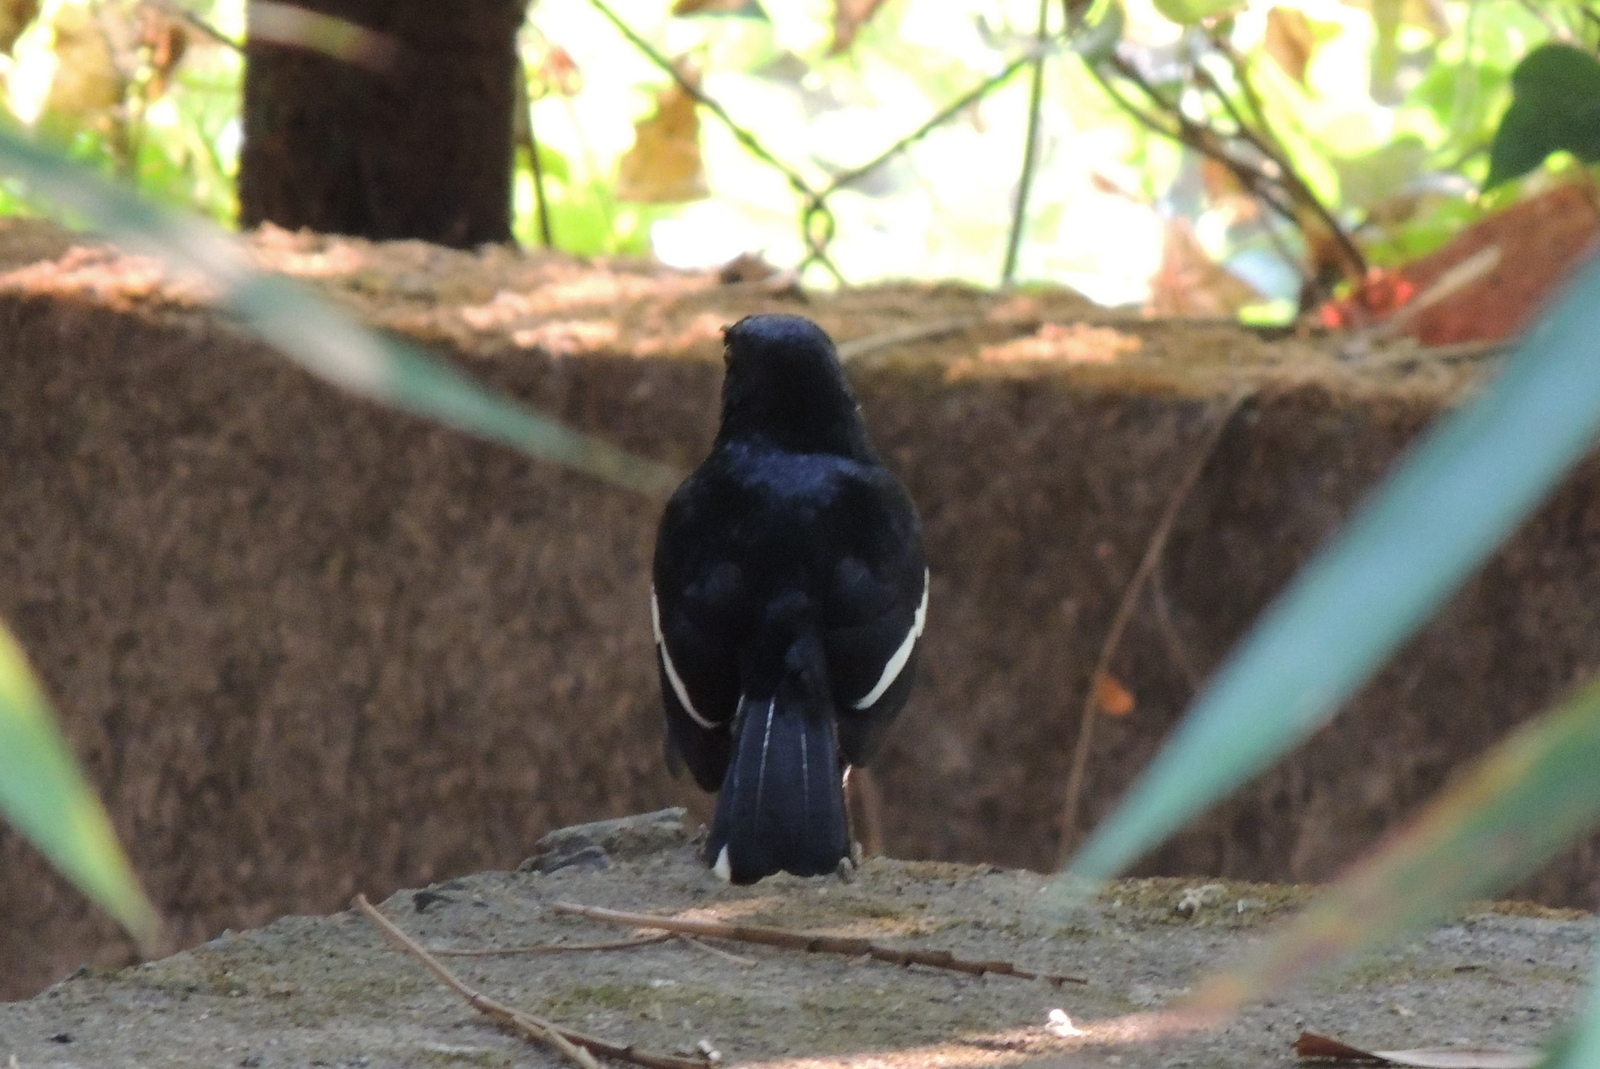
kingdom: Animalia
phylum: Chordata
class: Aves
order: Passeriformes
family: Muscicapidae
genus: Copsychus
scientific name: Copsychus saularis
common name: Oriental magpie-robin
